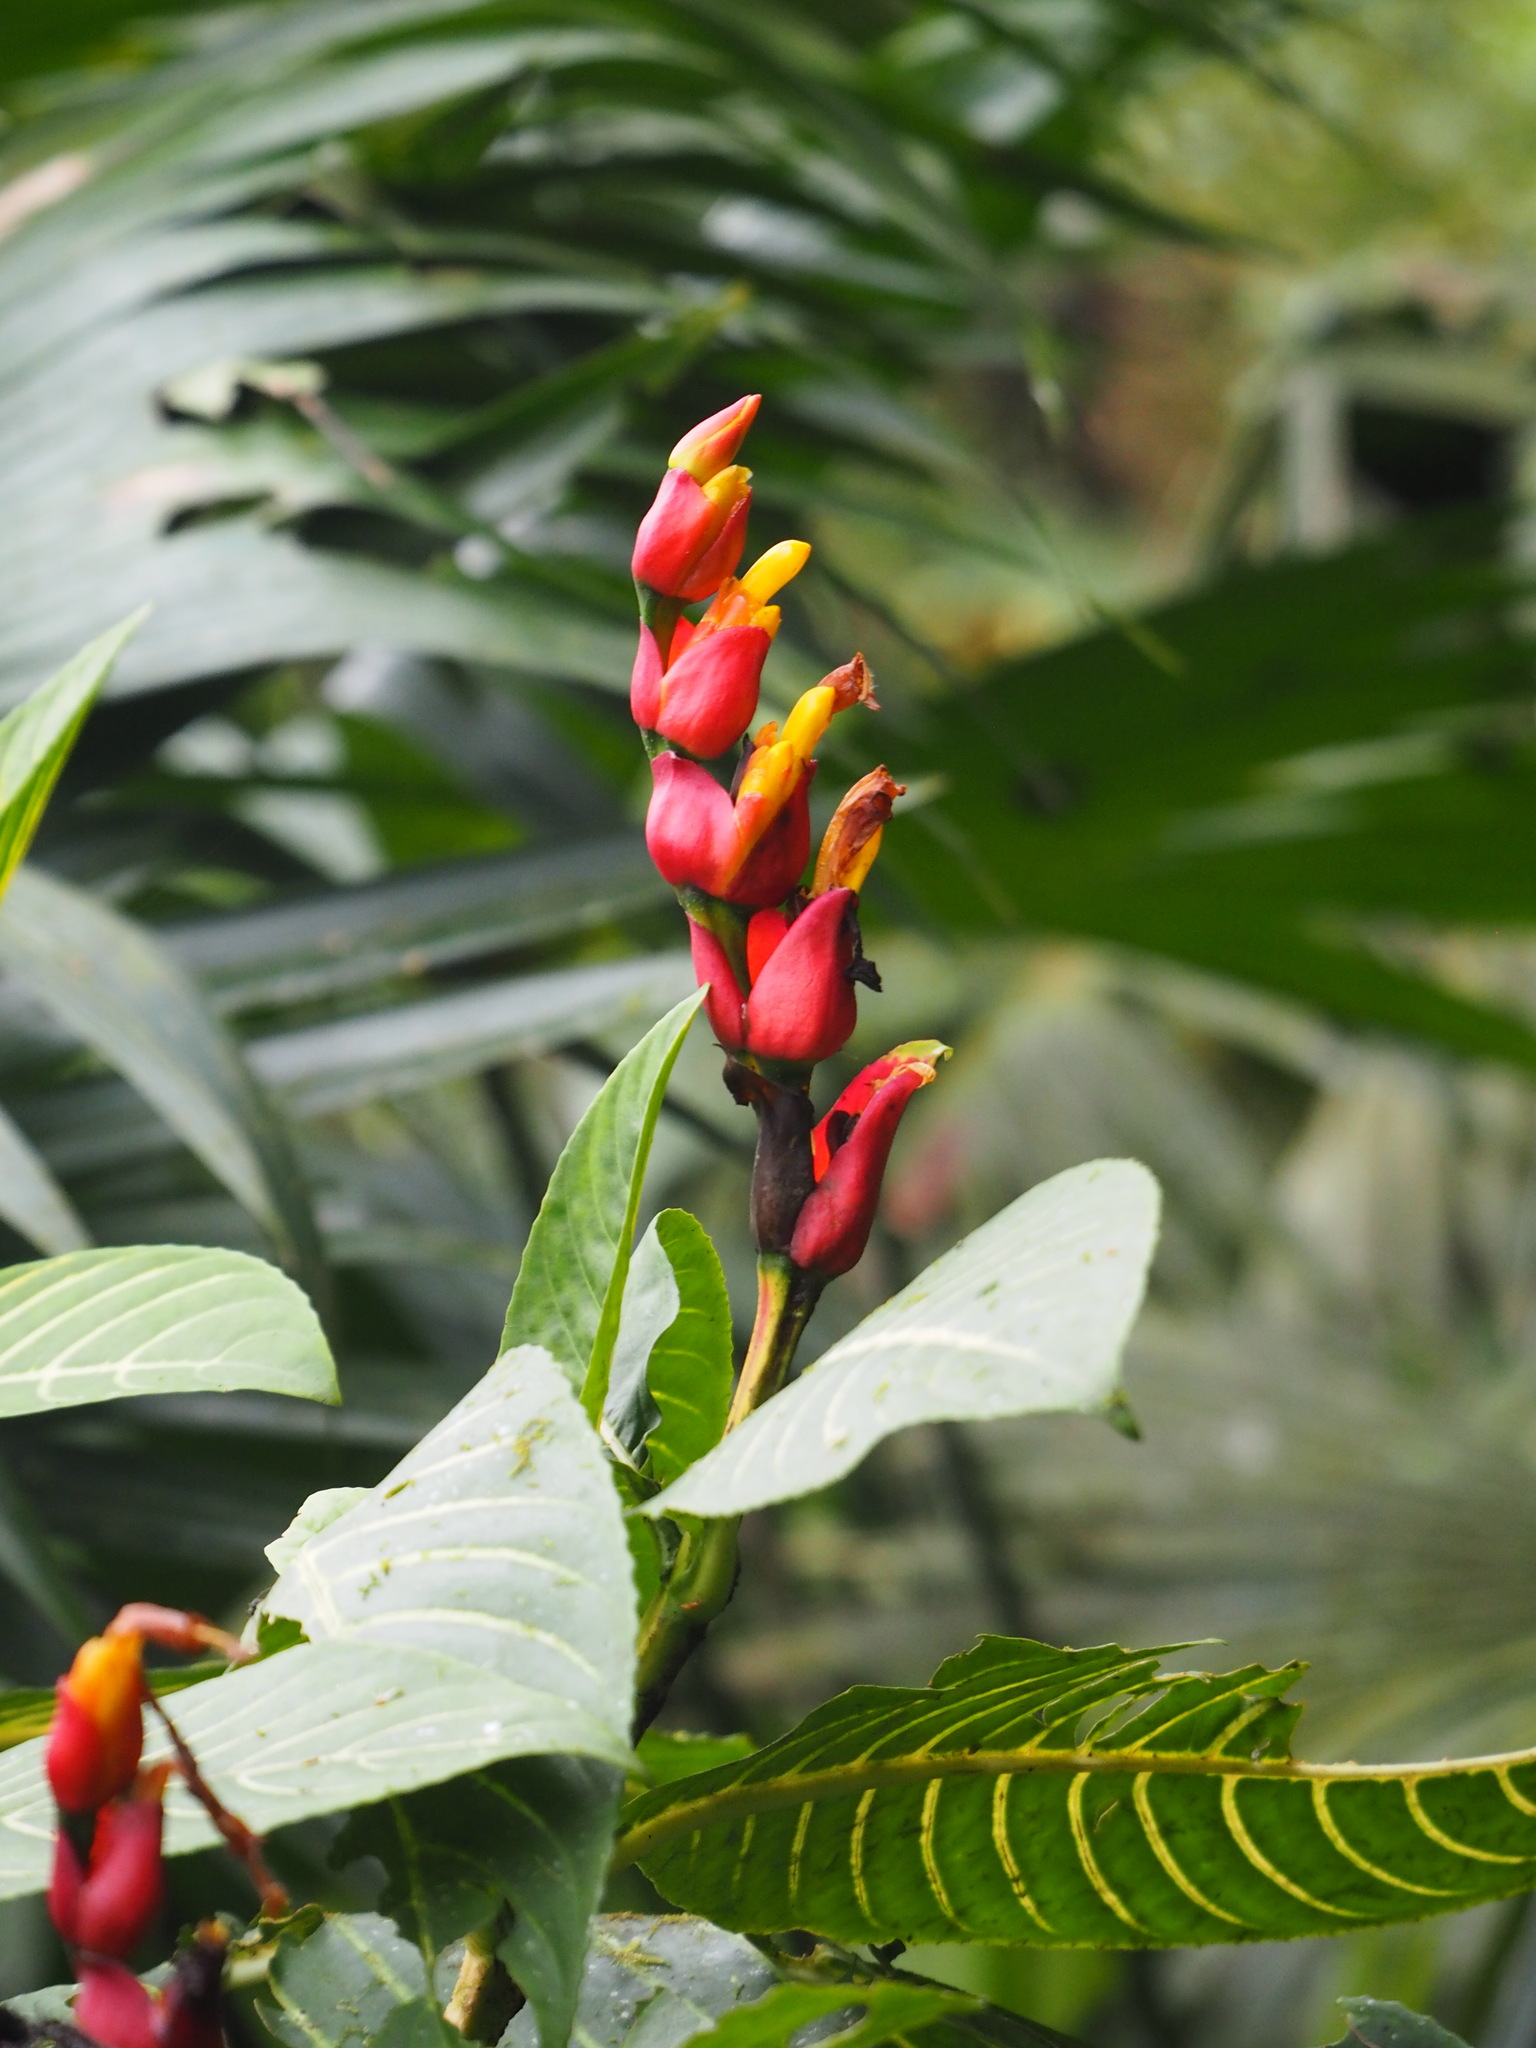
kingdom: Plantae
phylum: Tracheophyta
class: Magnoliopsida
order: Lamiales
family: Acanthaceae
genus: Sanchezia
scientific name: Sanchezia oblonga
